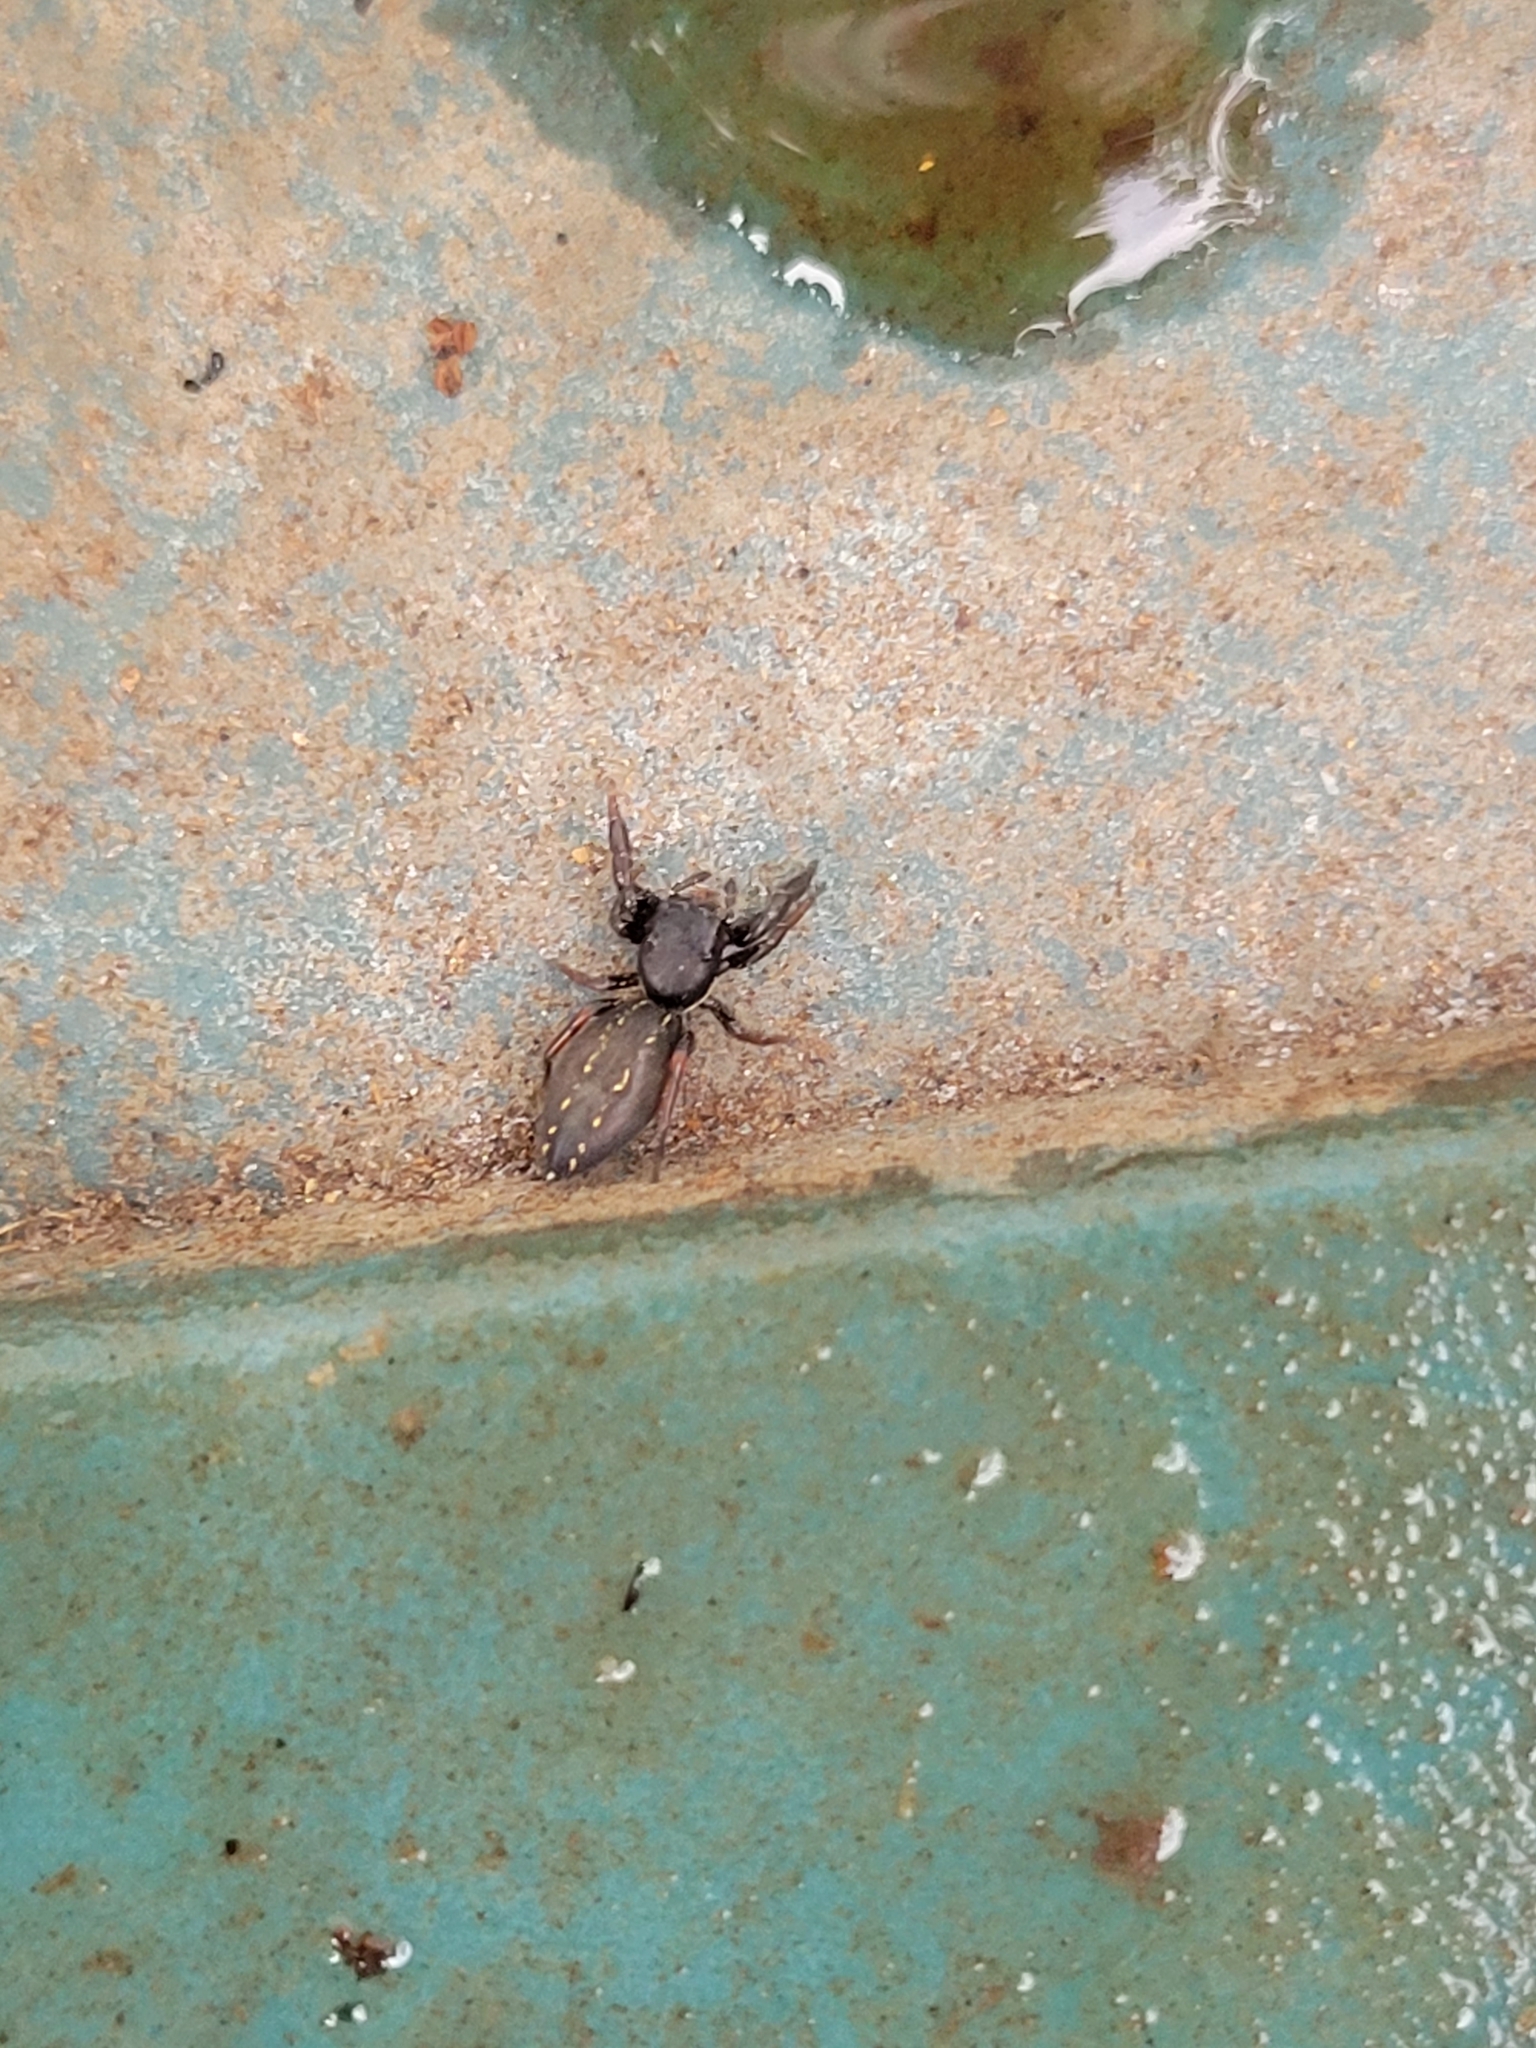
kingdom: Animalia
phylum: Arthropoda
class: Arachnida
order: Araneae
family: Salticidae
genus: Metacyrba
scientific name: Metacyrba taeniola
